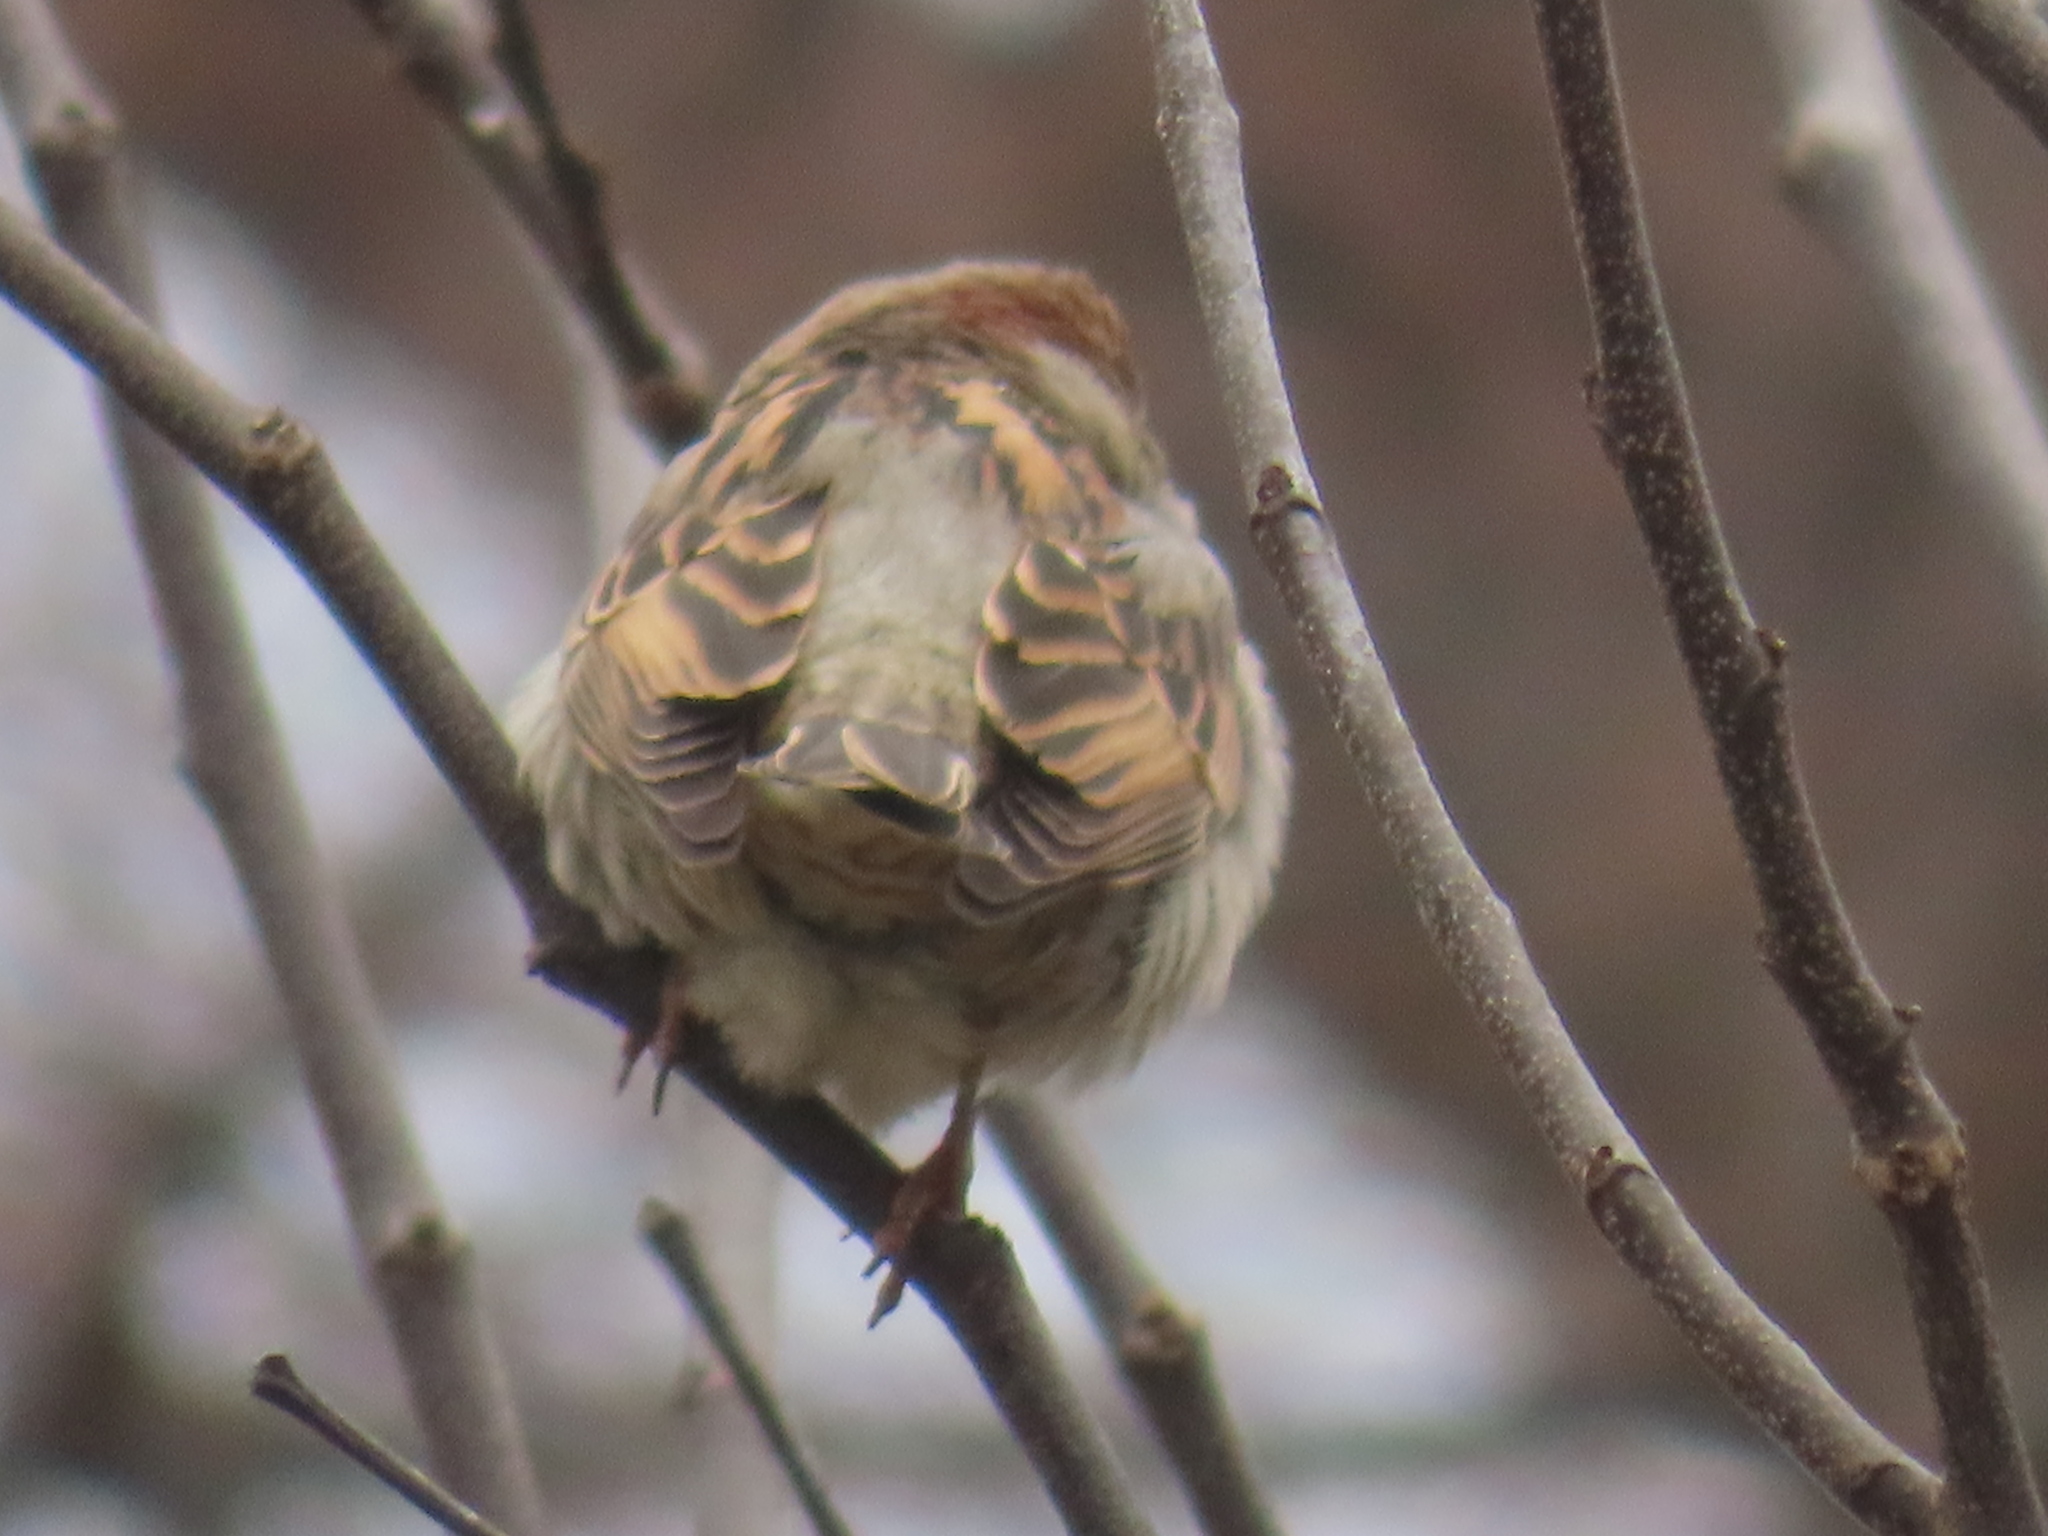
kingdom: Animalia
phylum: Chordata
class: Aves
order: Passeriformes
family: Passeridae
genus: Passer
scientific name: Passer domesticus
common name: House sparrow
